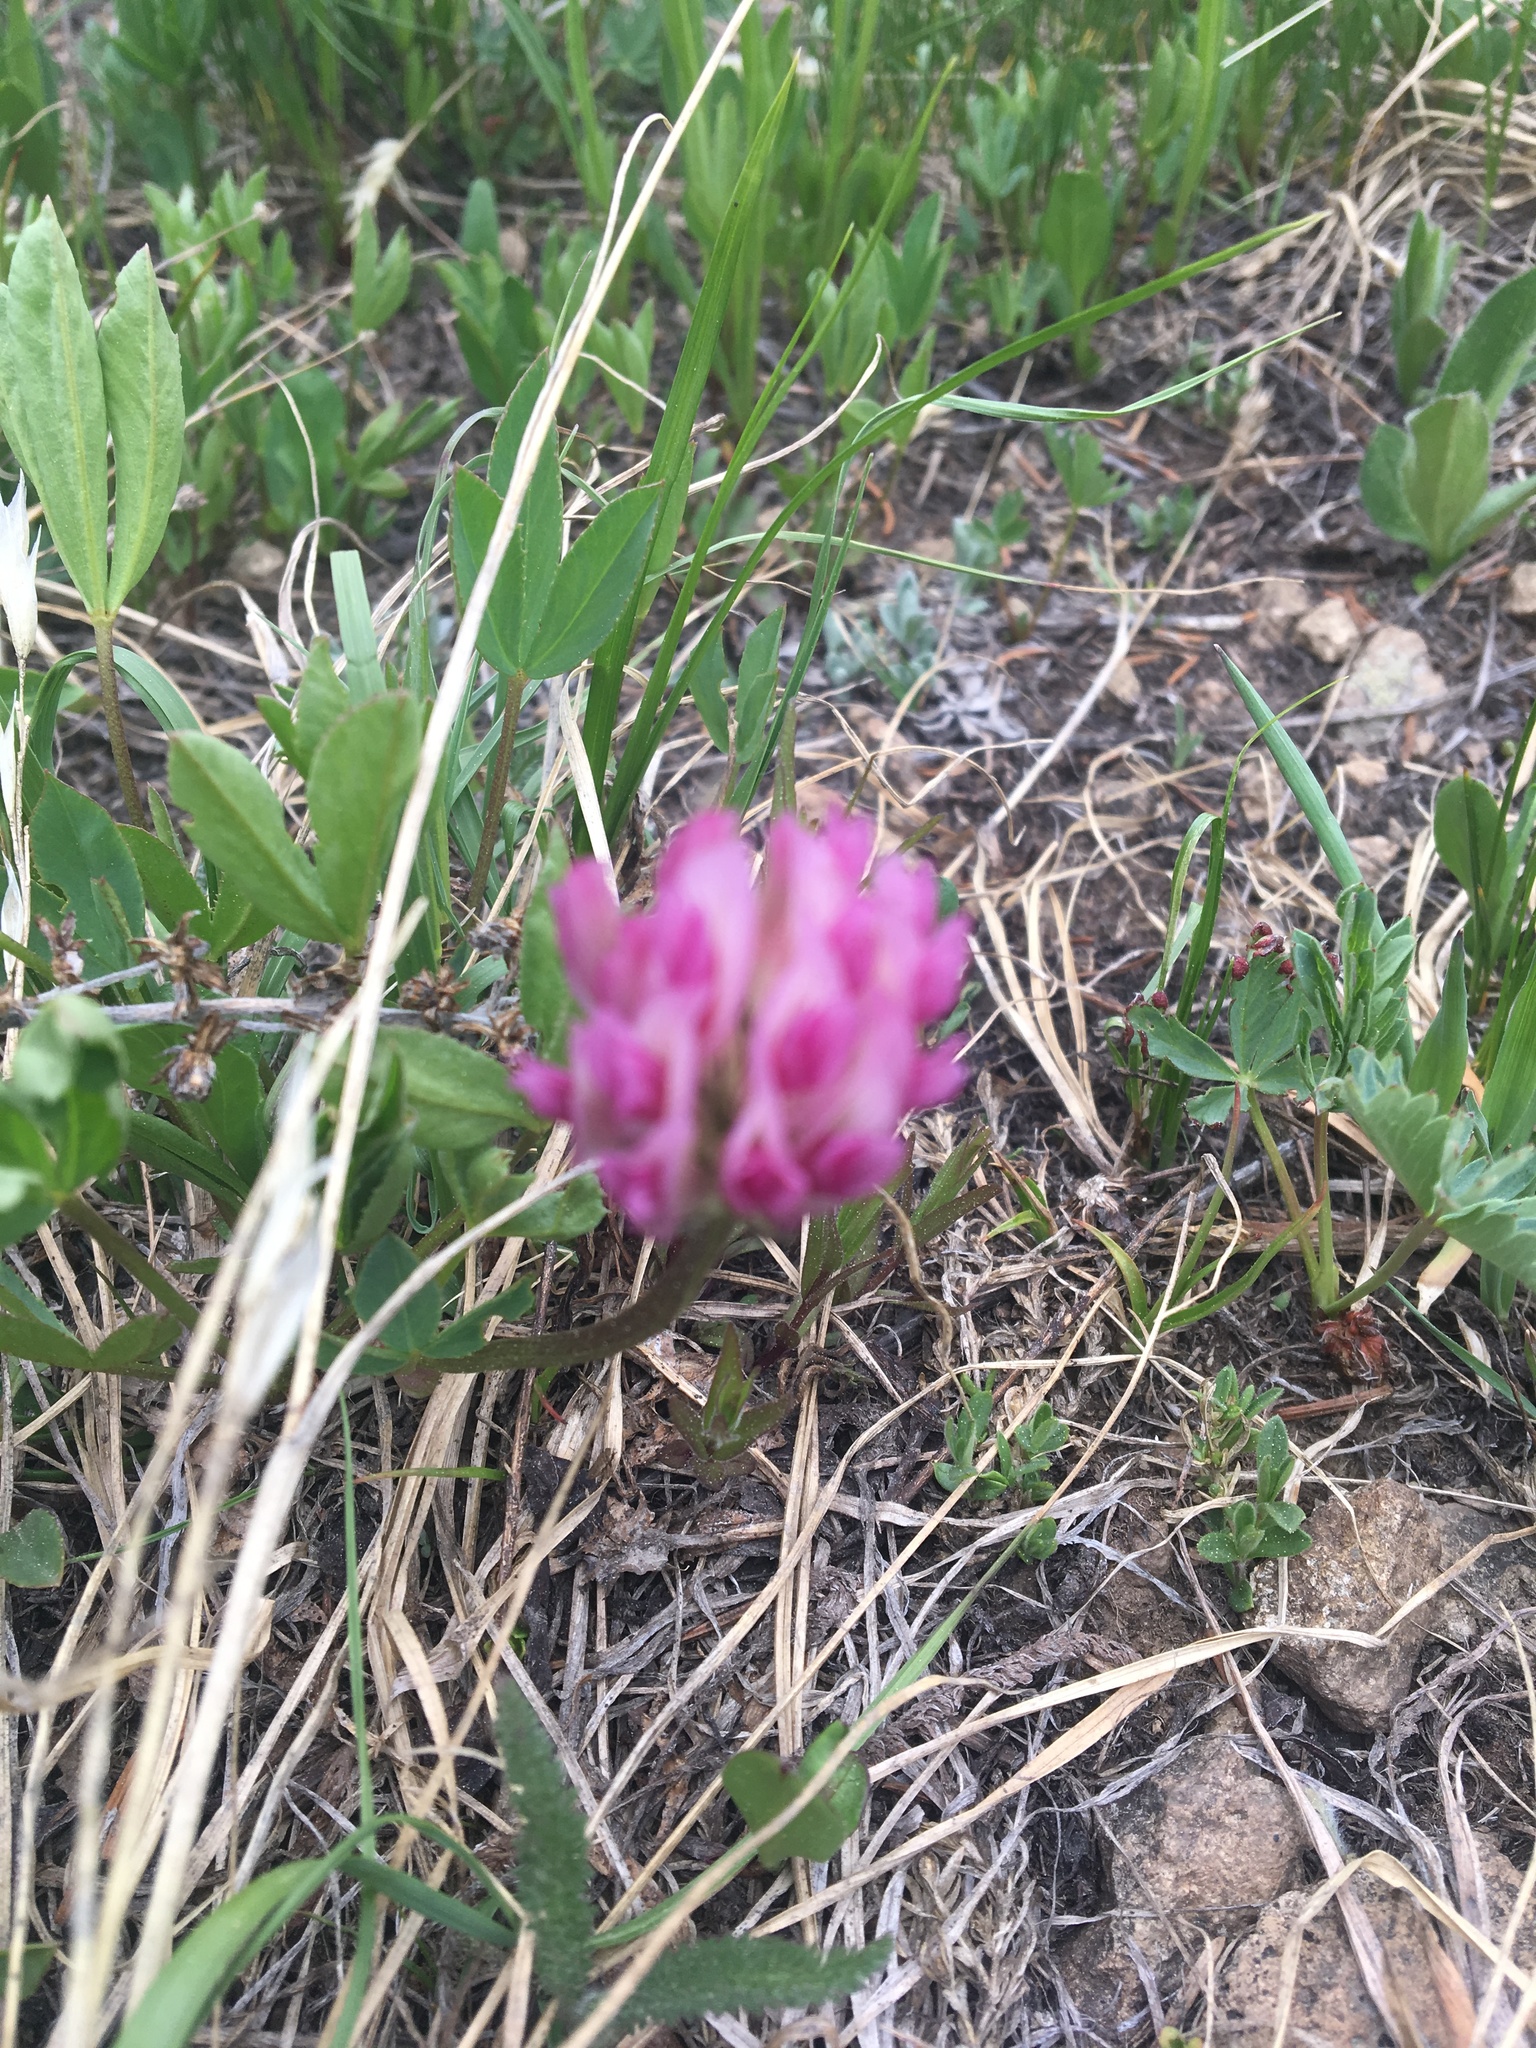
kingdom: Plantae
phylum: Tracheophyta
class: Magnoliopsida
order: Fabales
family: Fabaceae
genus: Trifolium
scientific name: Trifolium parryi
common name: Parry's clover
